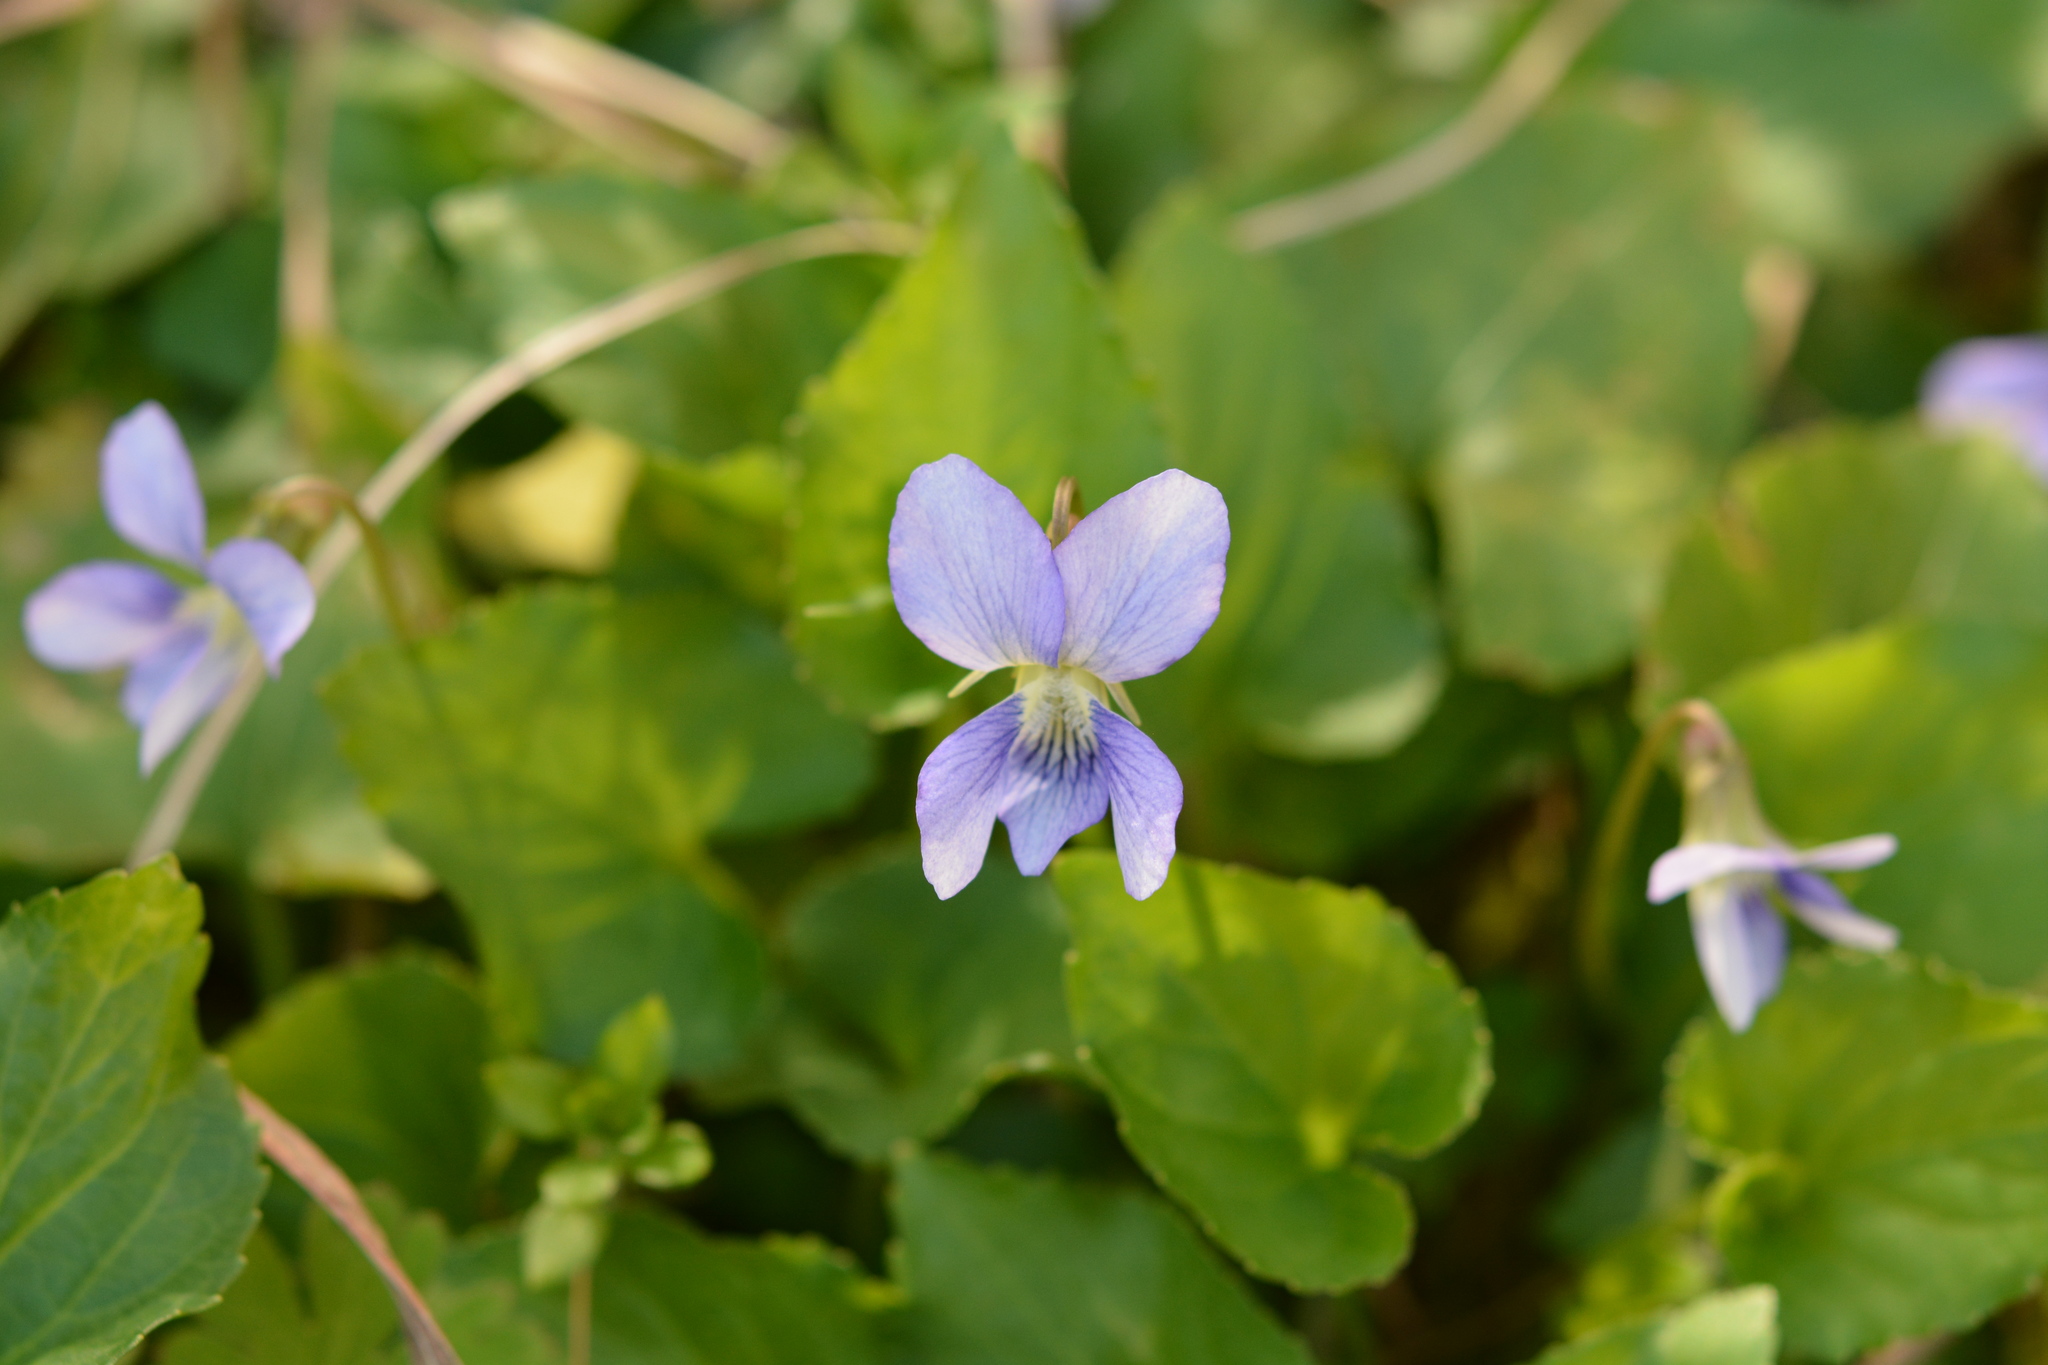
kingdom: Plantae
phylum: Tracheophyta
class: Magnoliopsida
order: Malpighiales
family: Violaceae
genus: Viola
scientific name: Viola sororia
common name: Dooryard violet
